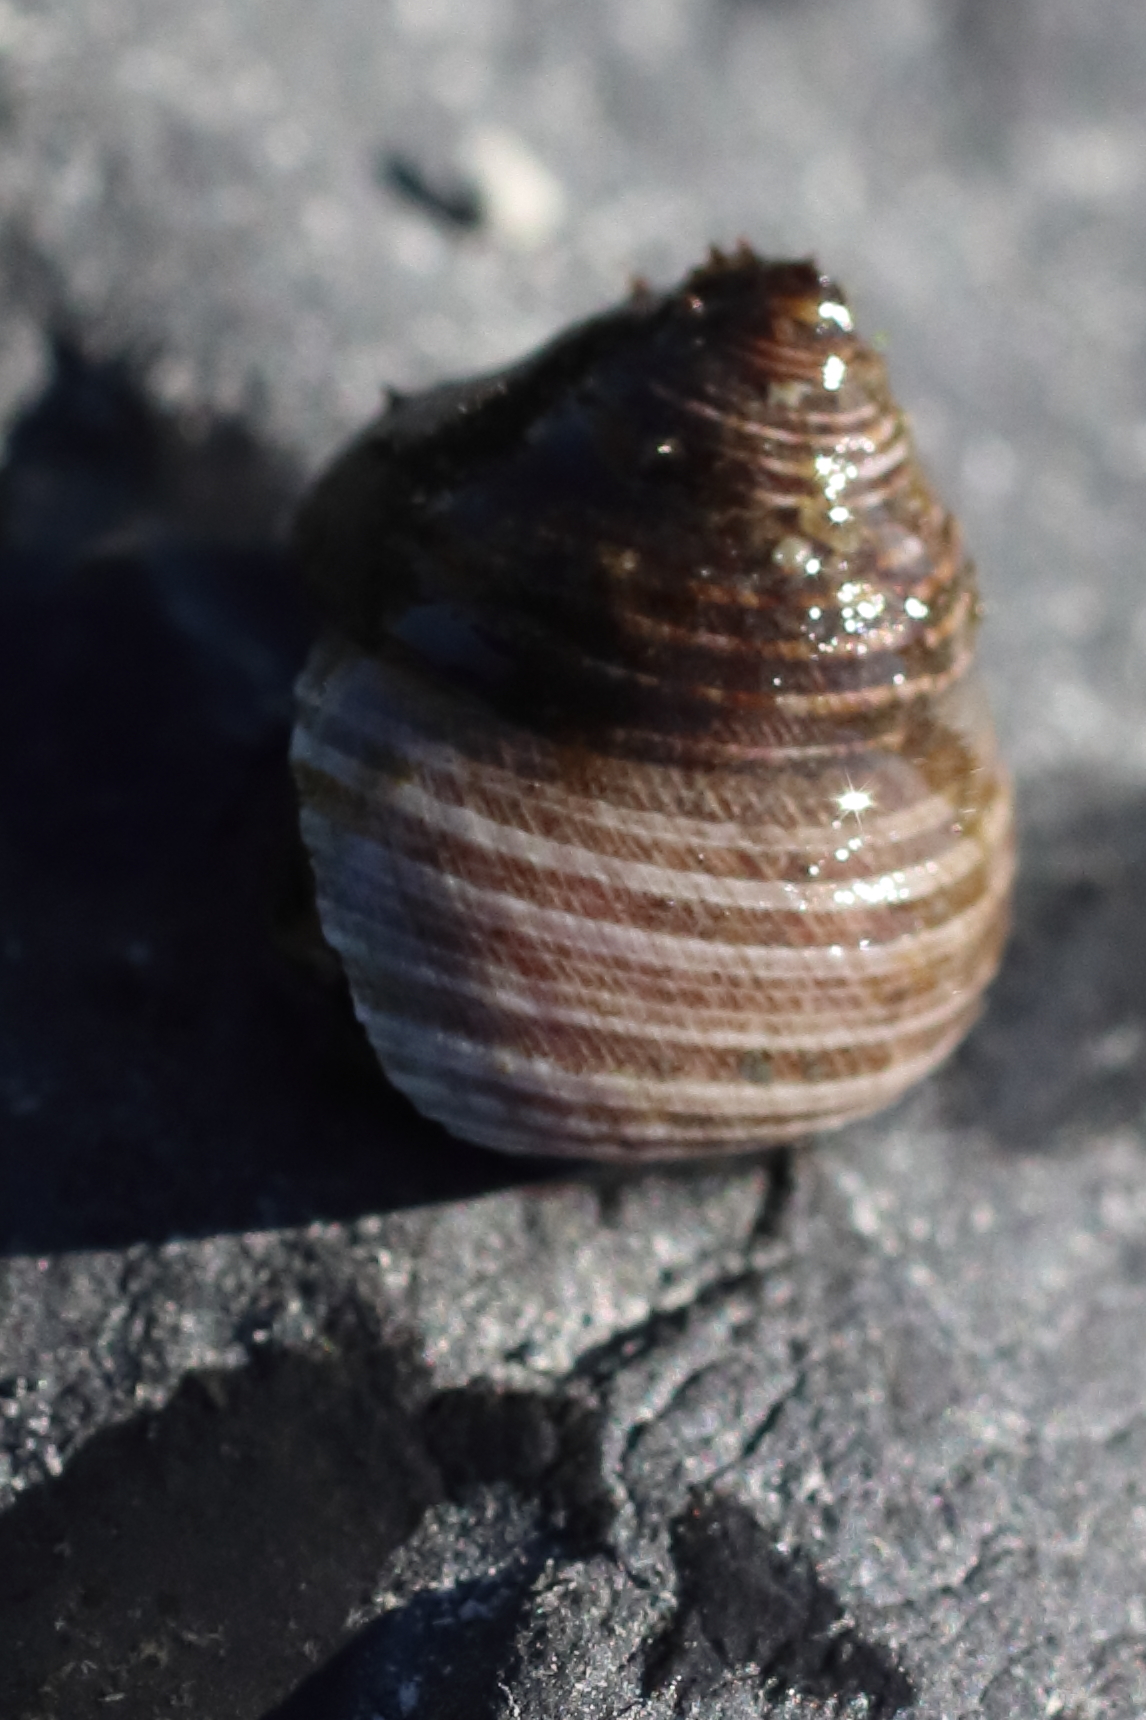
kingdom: Animalia
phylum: Mollusca
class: Gastropoda
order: Trochida
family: Margaritidae
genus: Margarites
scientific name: Margarites pupillus
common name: Puppet margarite
